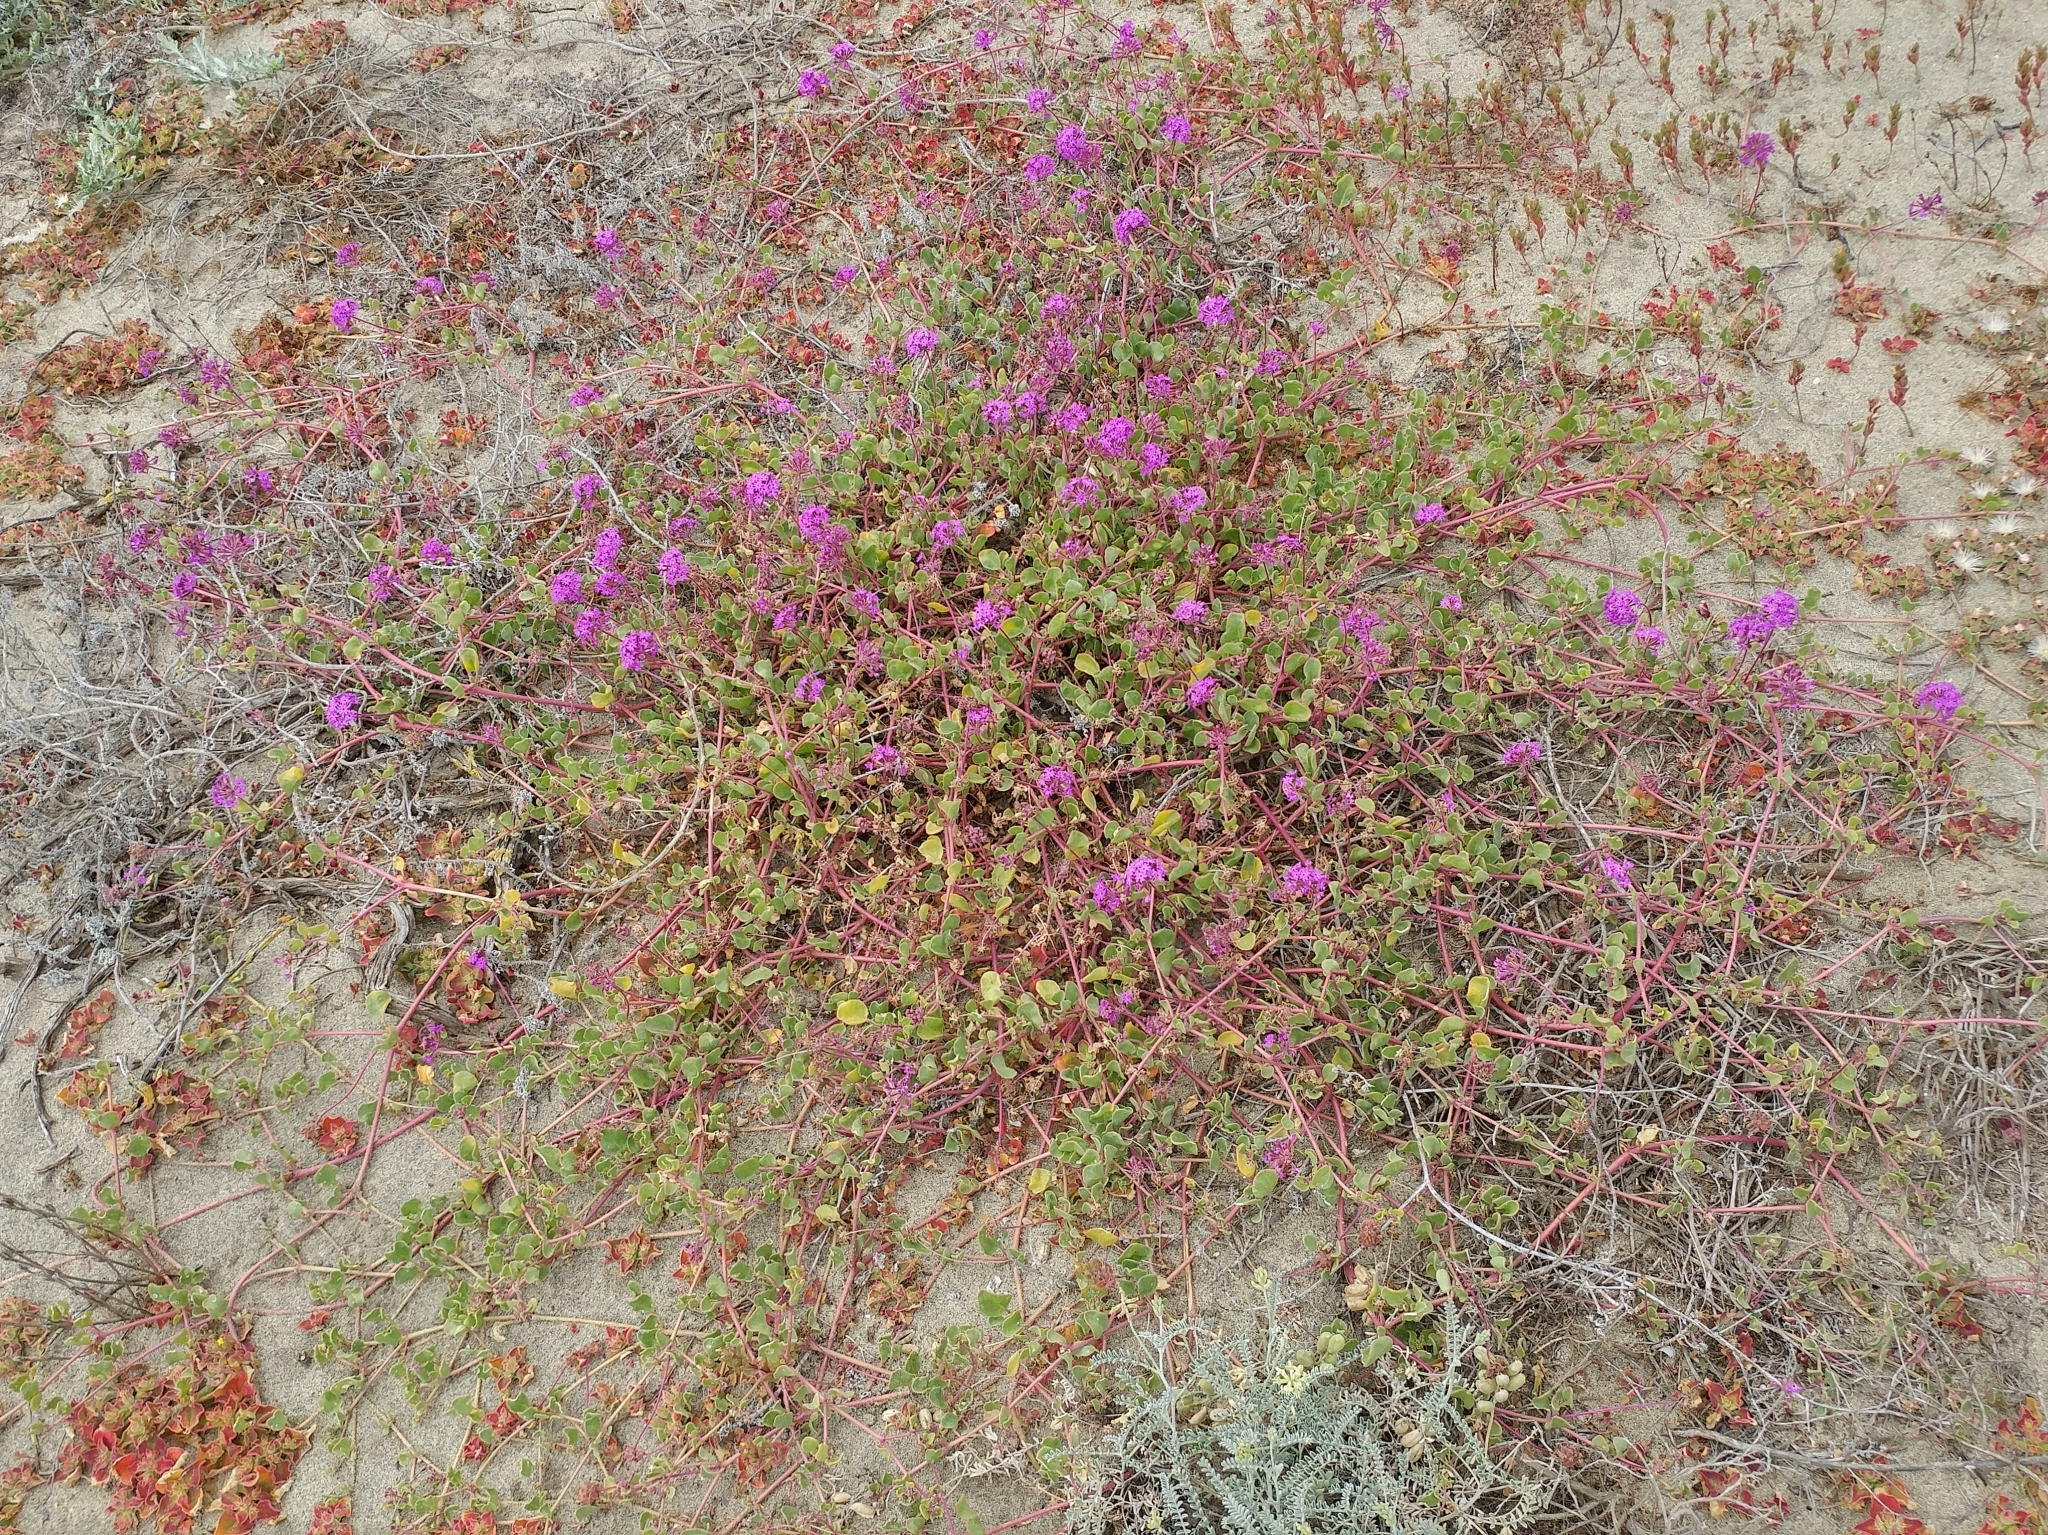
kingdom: Plantae
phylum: Tracheophyta
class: Magnoliopsida
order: Caryophyllales
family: Nyctaginaceae
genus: Abronia
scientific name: Abronia umbellata
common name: Sand-verbena
